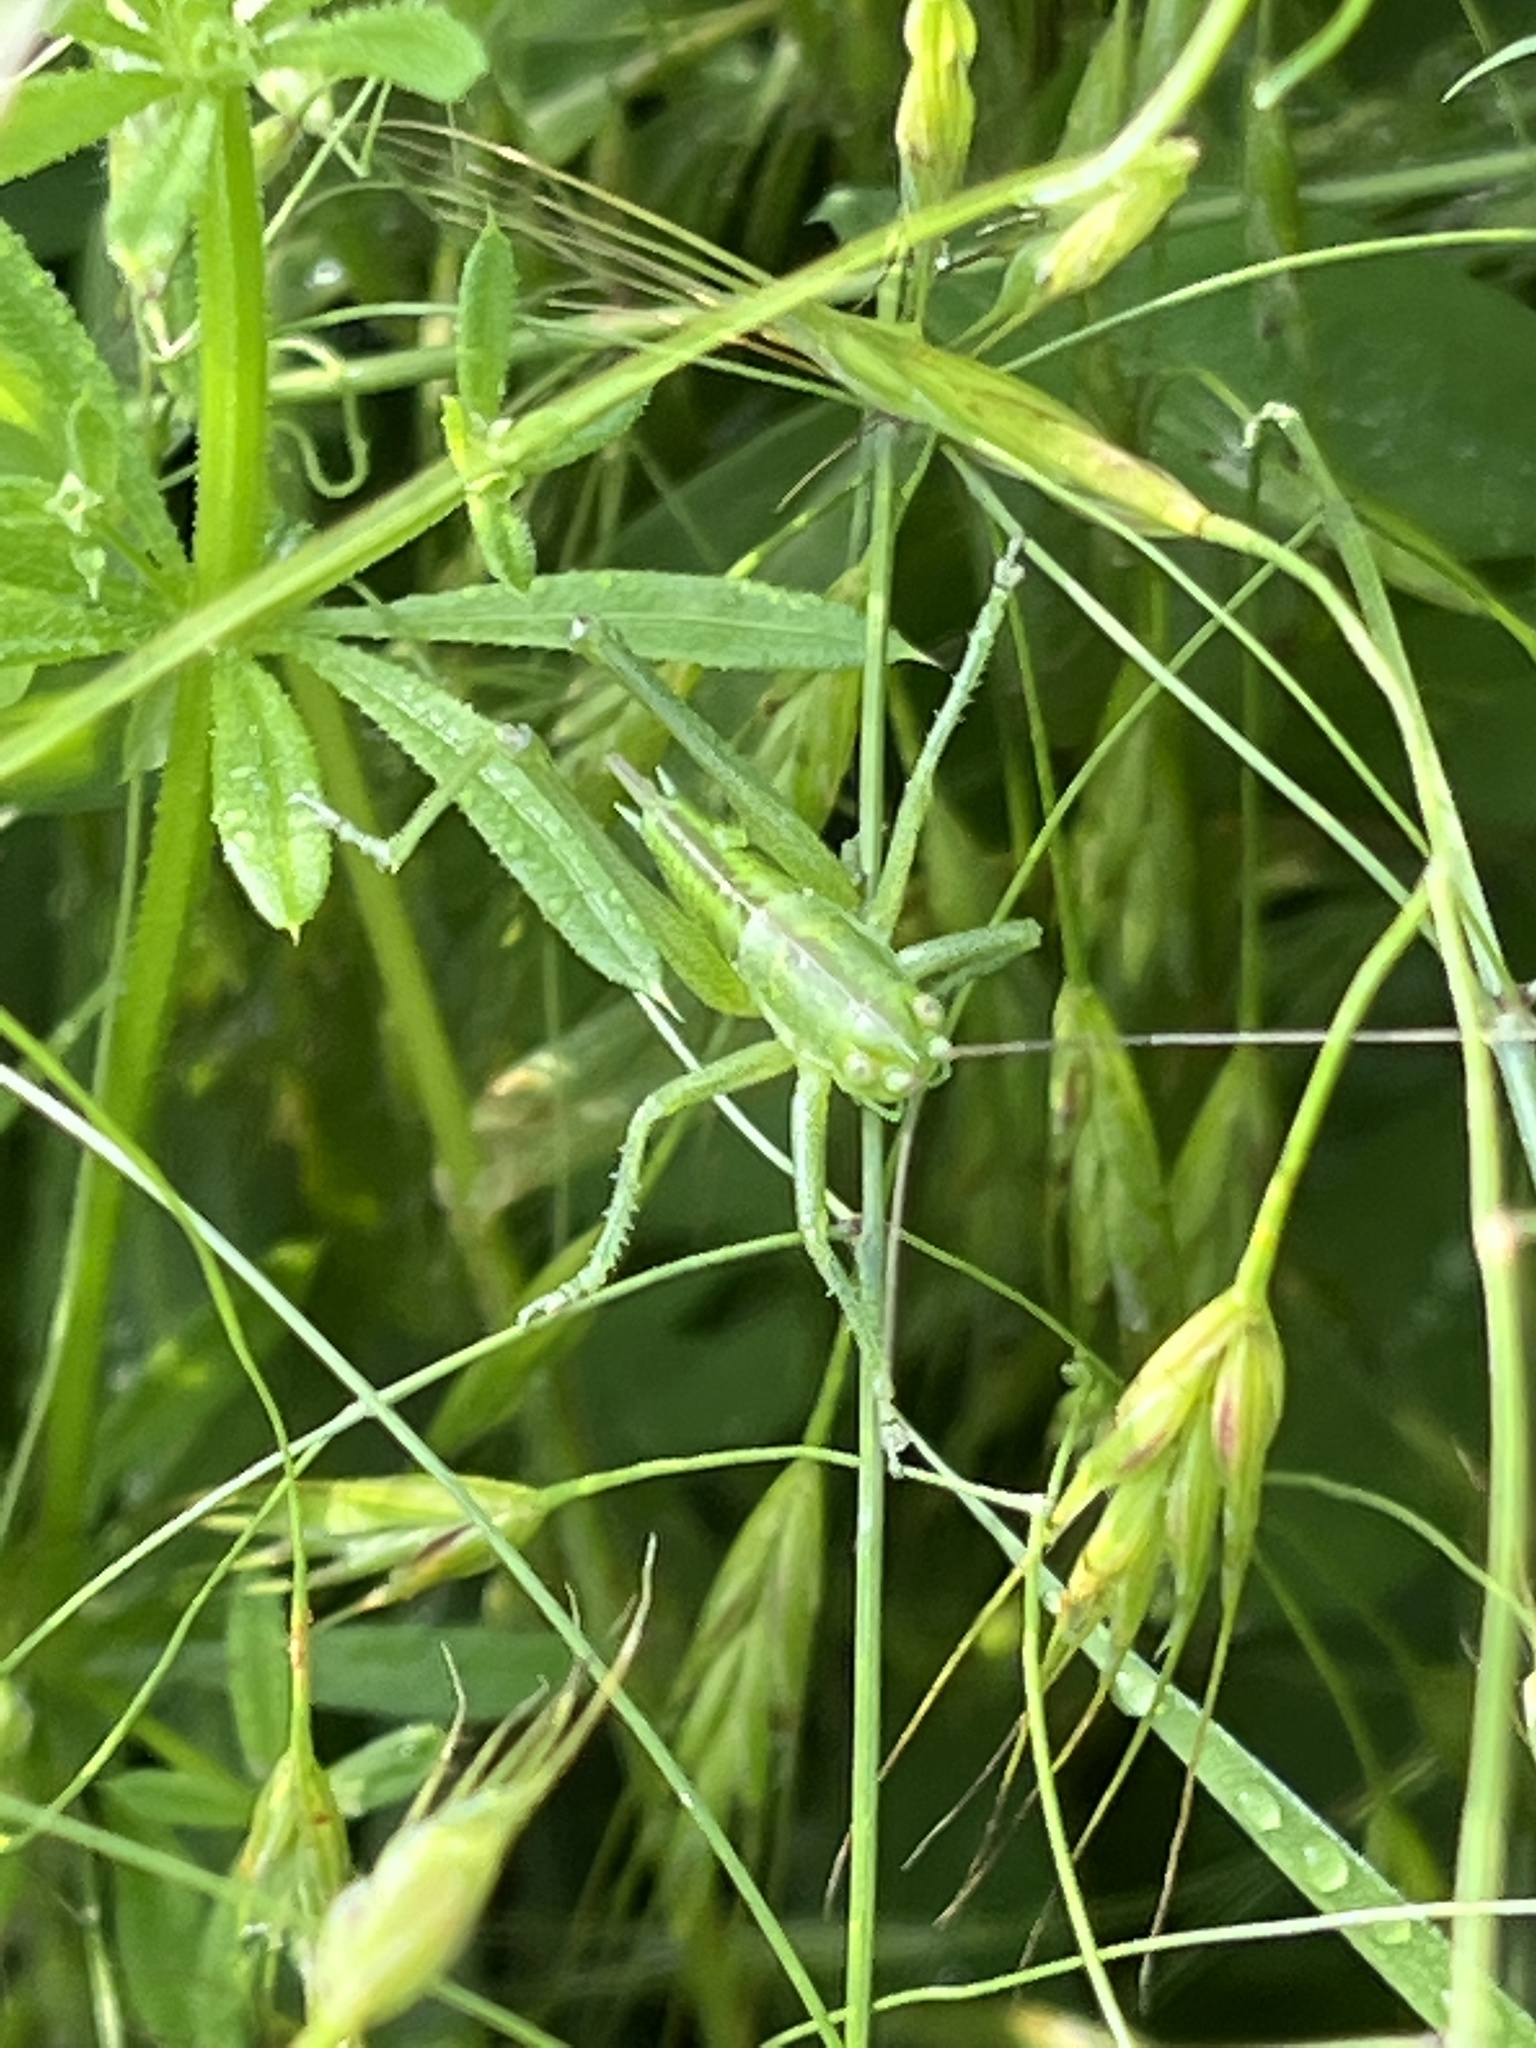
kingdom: Animalia
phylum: Arthropoda
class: Insecta
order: Orthoptera
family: Tettigoniidae
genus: Tettigonia
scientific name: Tettigonia viridissima
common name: Great green bush-cricket
